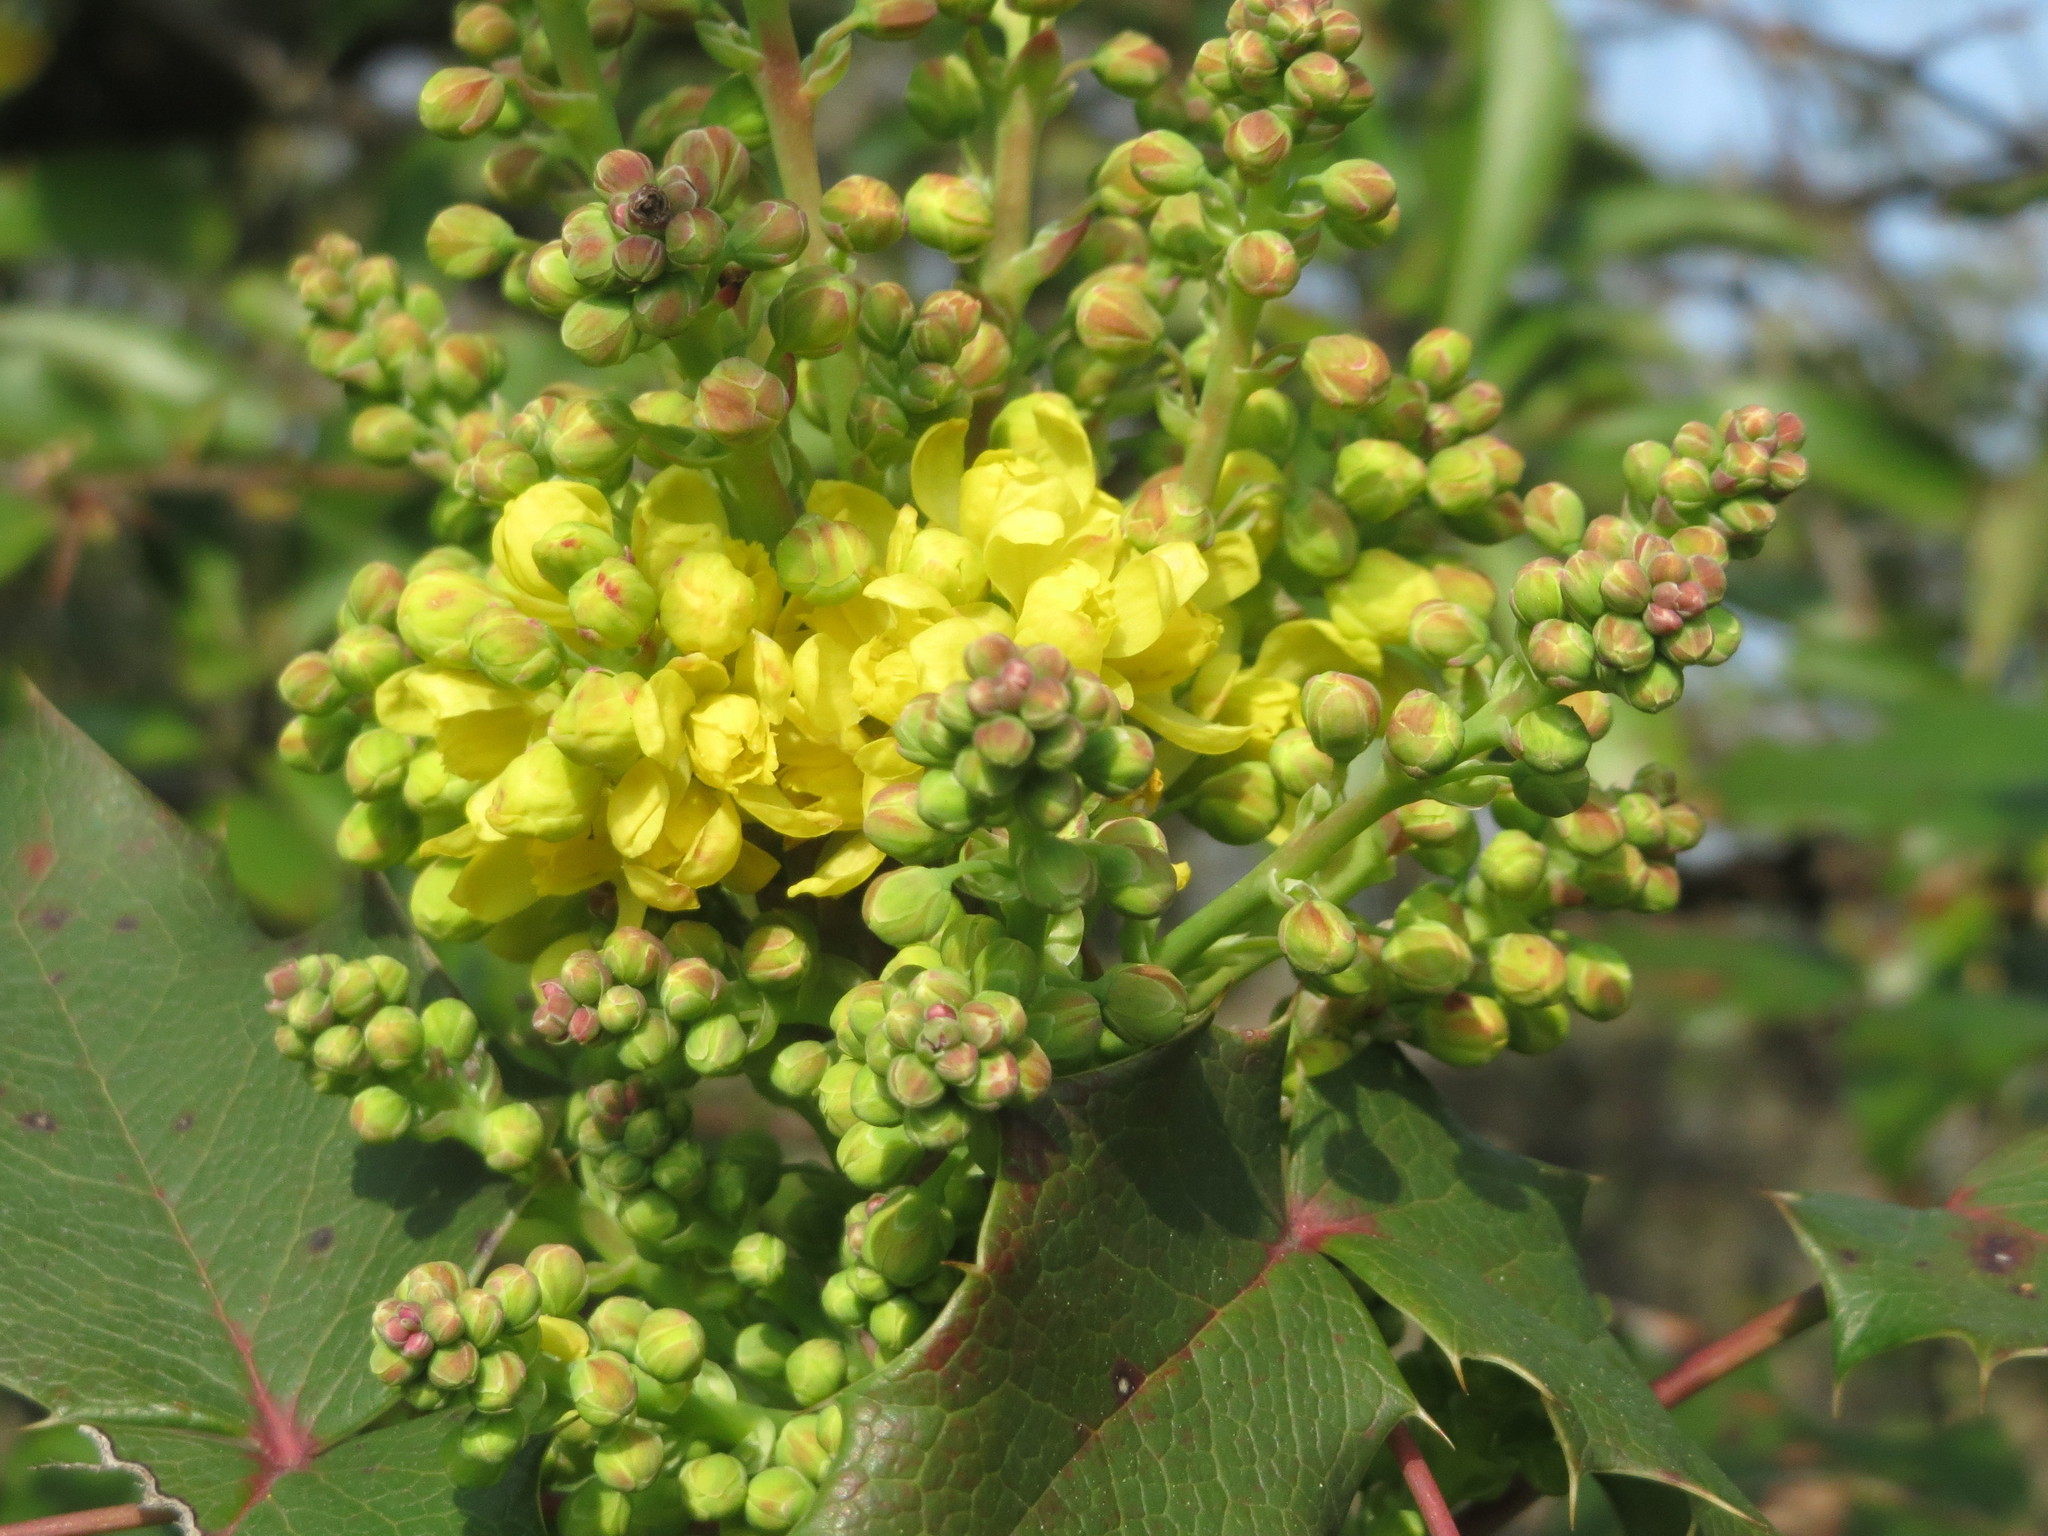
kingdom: Plantae
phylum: Tracheophyta
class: Magnoliopsida
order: Ranunculales
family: Berberidaceae
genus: Mahonia
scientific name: Mahonia aquifolium
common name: Oregon-grape
